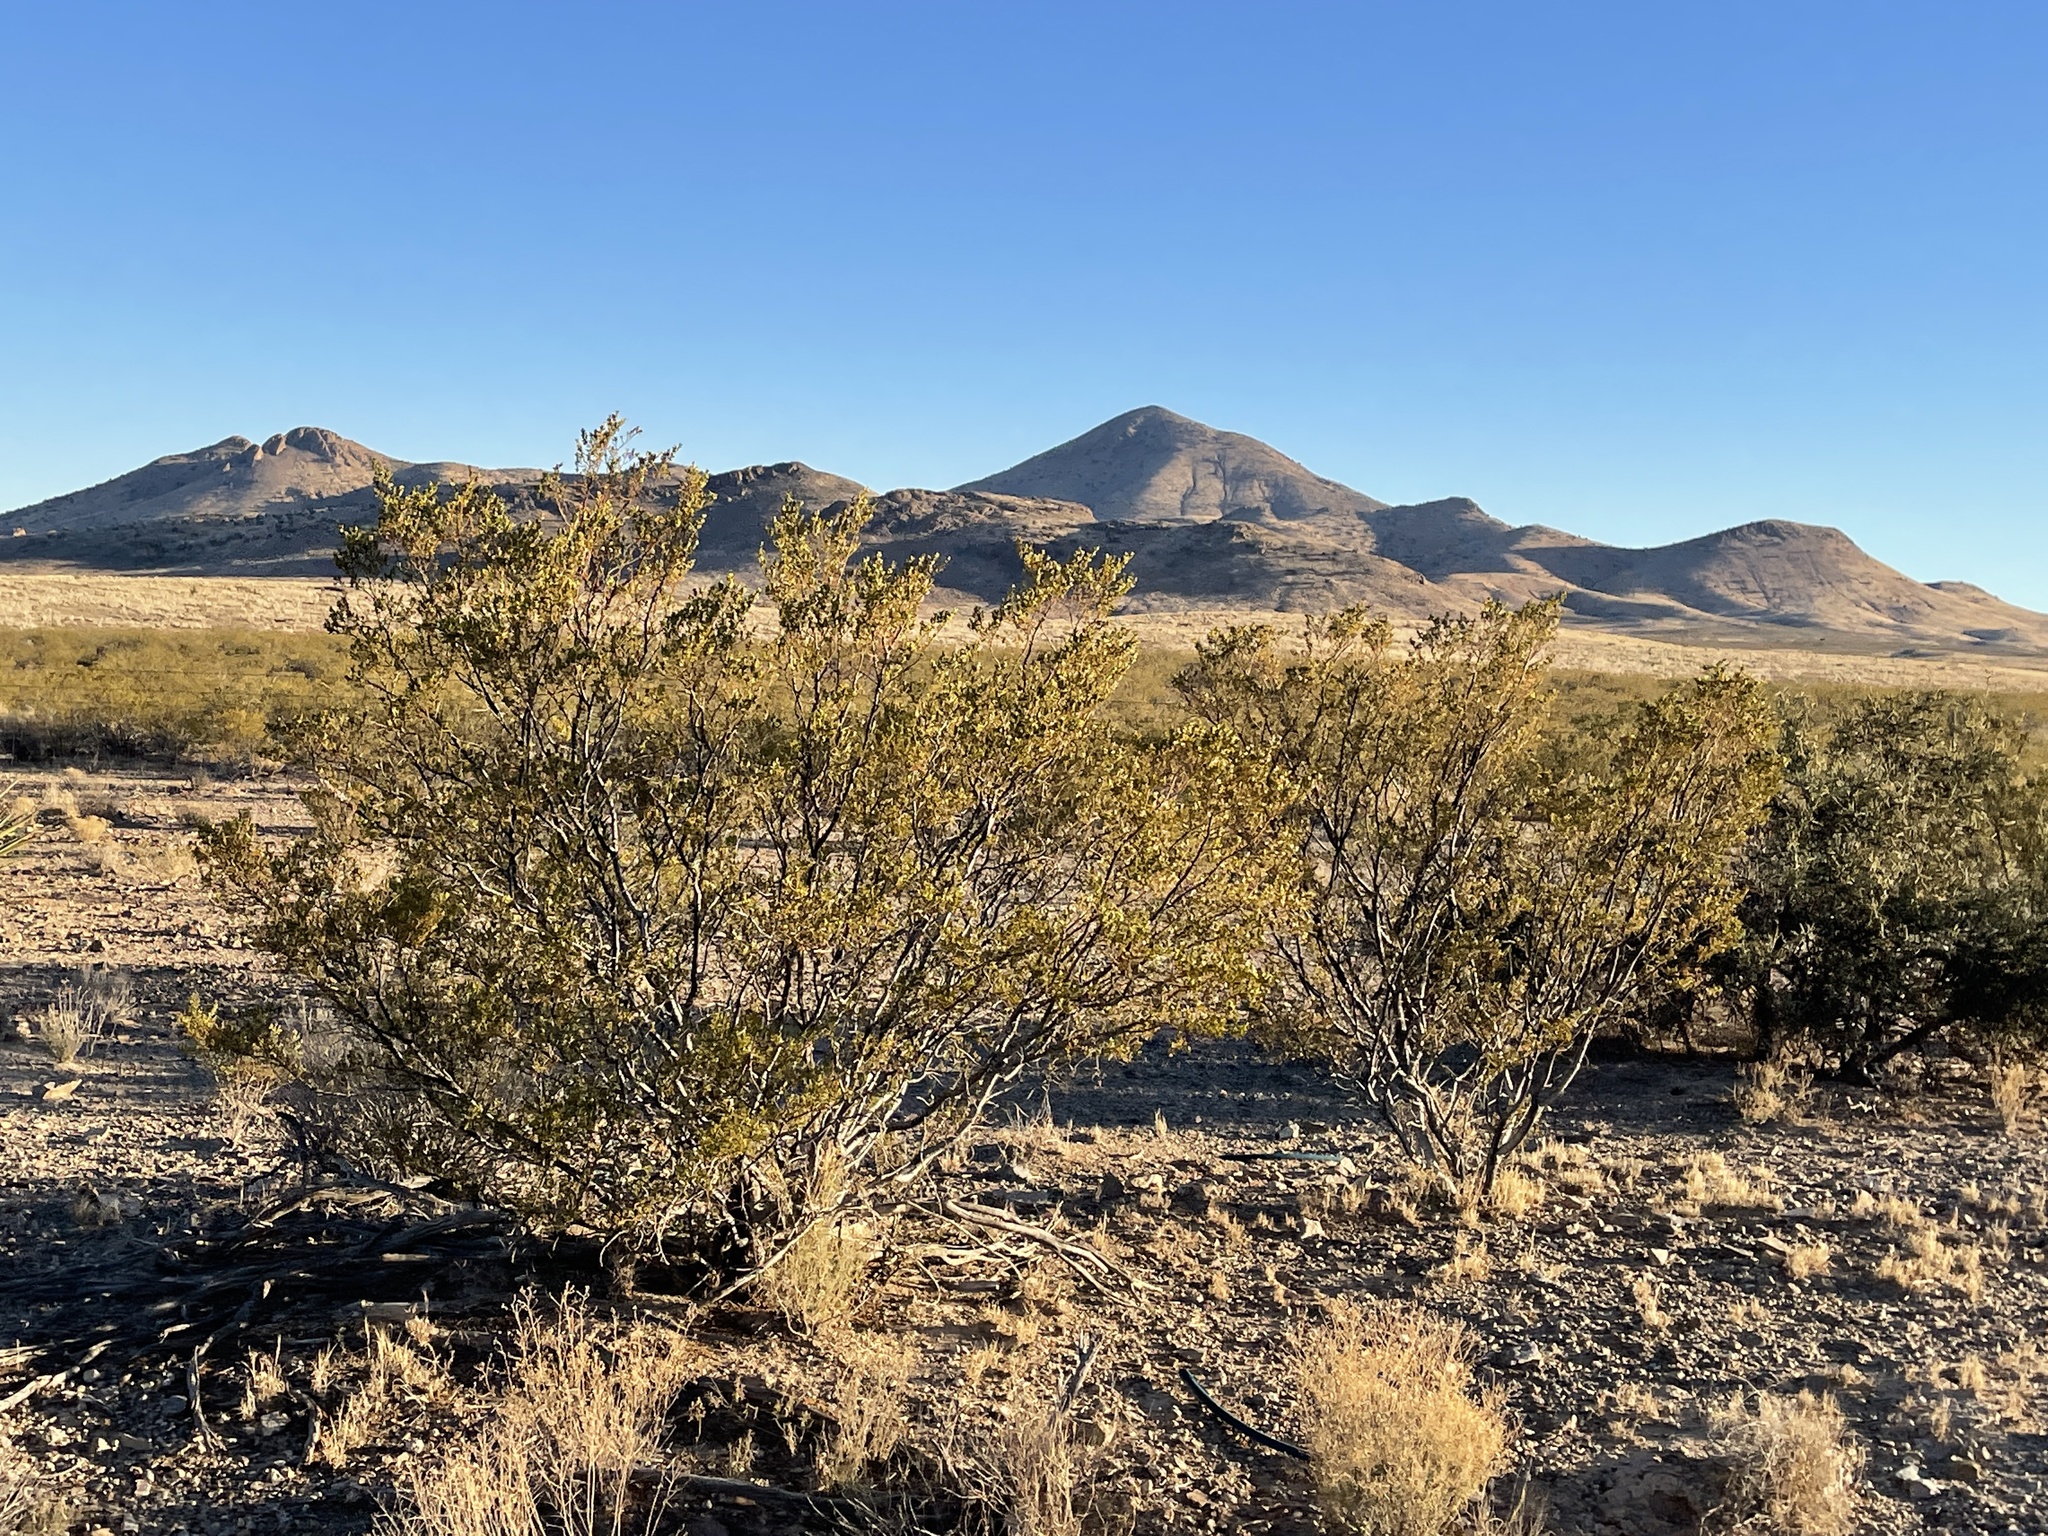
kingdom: Plantae
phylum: Tracheophyta
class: Magnoliopsida
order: Zygophyllales
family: Zygophyllaceae
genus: Larrea
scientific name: Larrea tridentata
